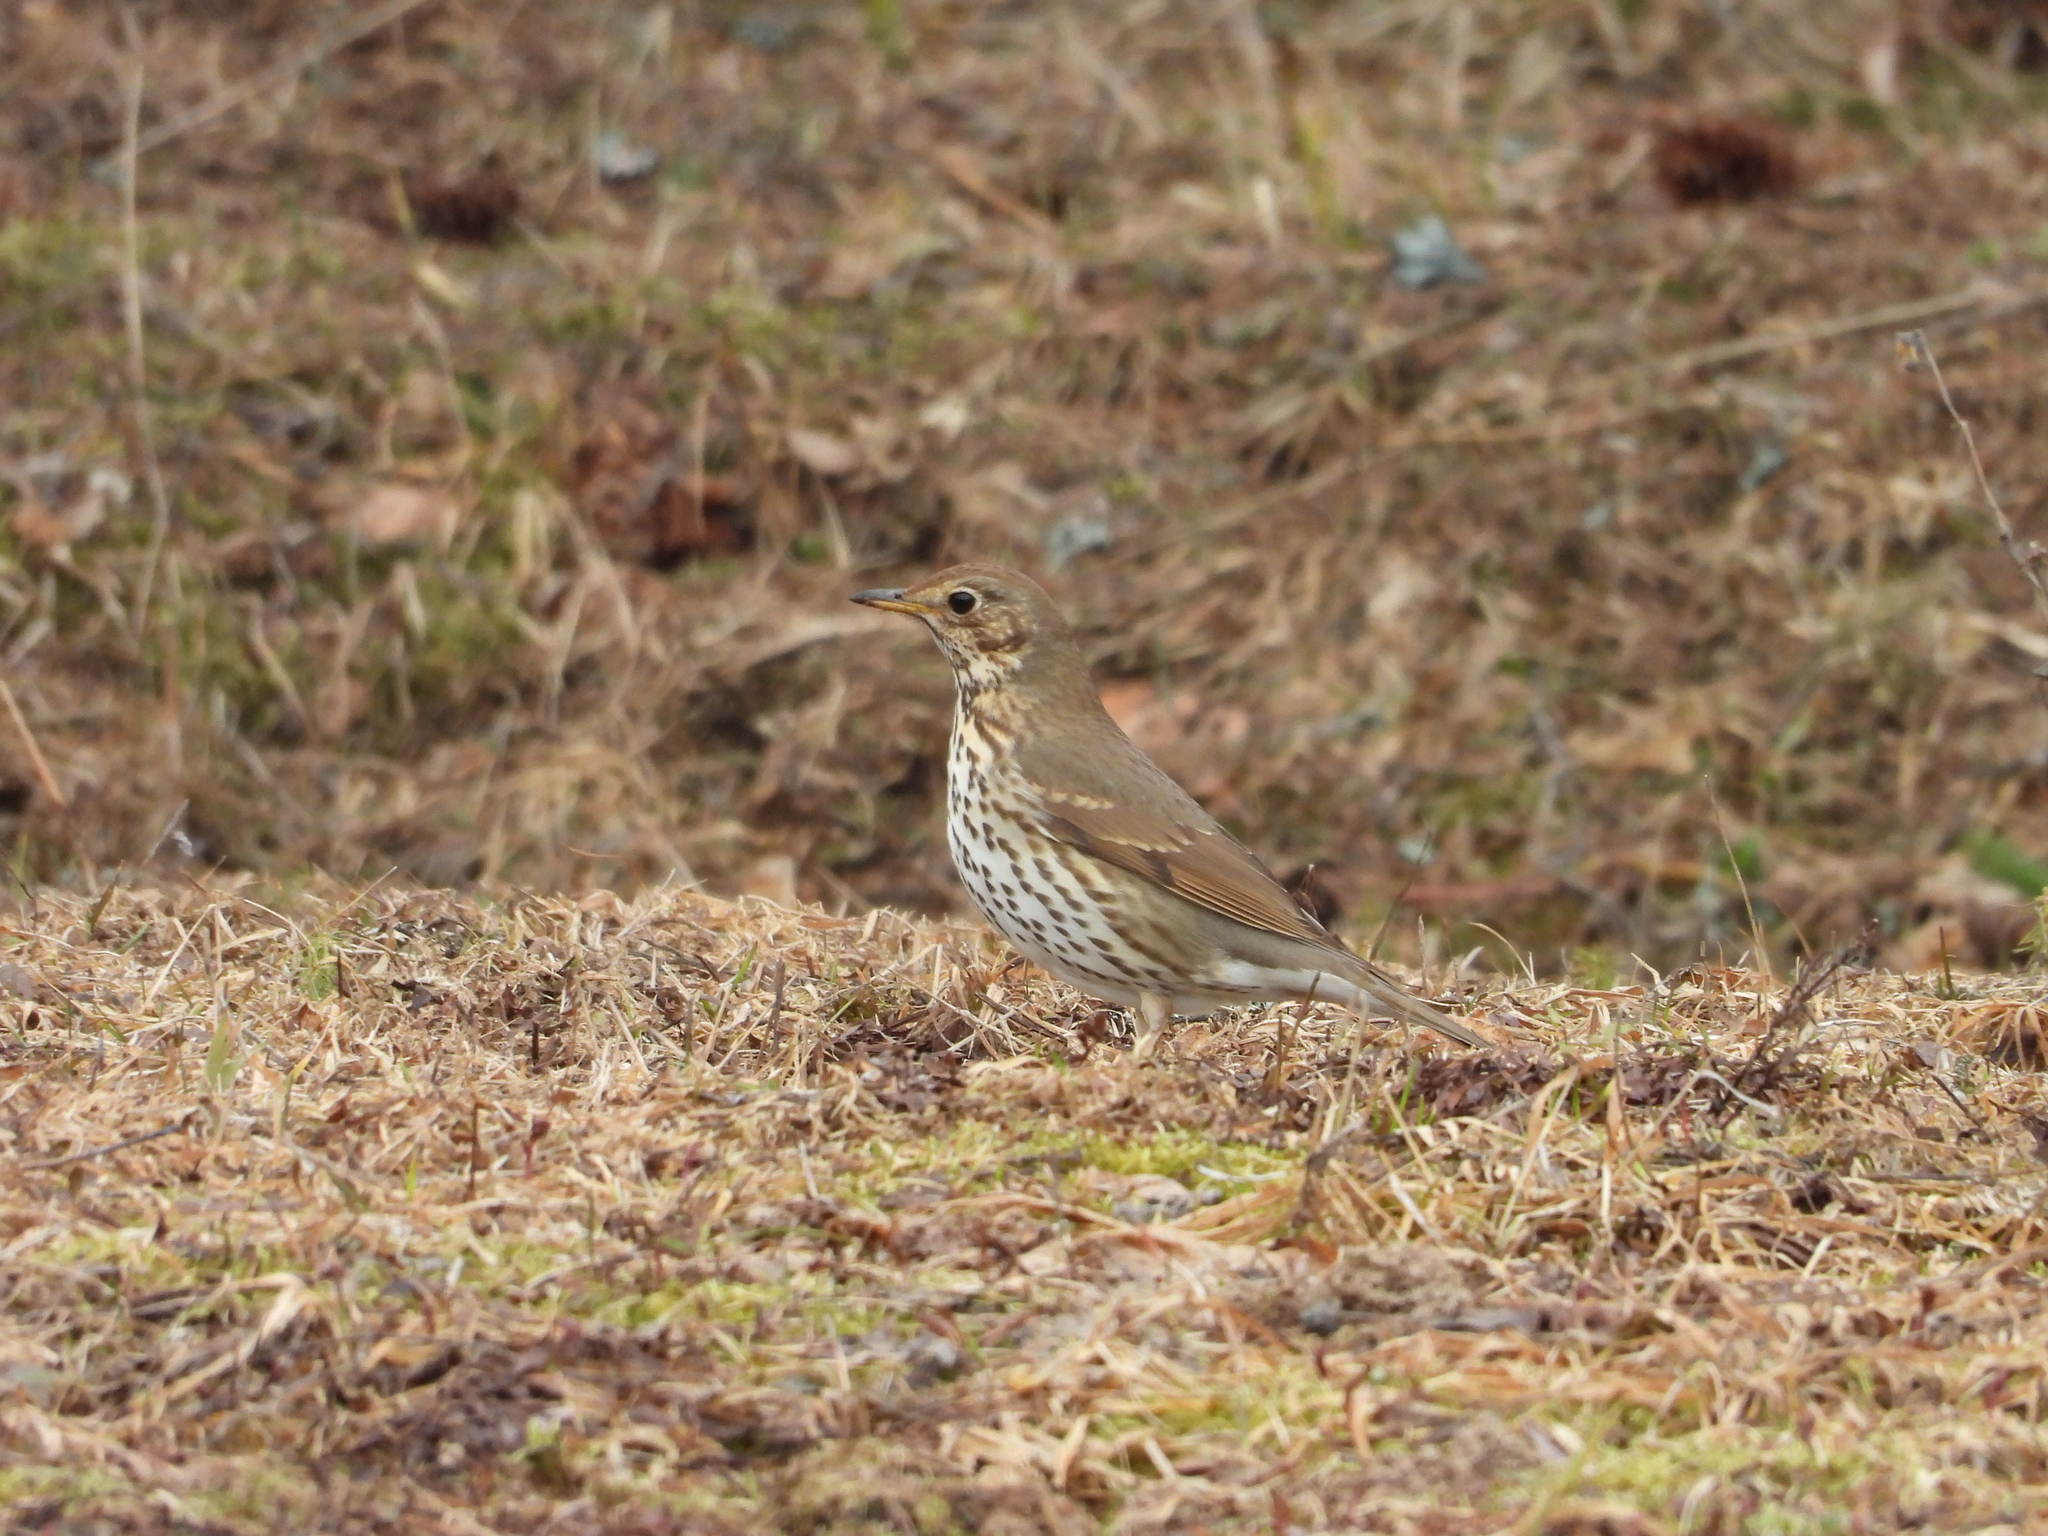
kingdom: Animalia
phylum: Chordata
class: Aves
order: Passeriformes
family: Turdidae
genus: Turdus
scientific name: Turdus philomelos
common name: Song thrush
